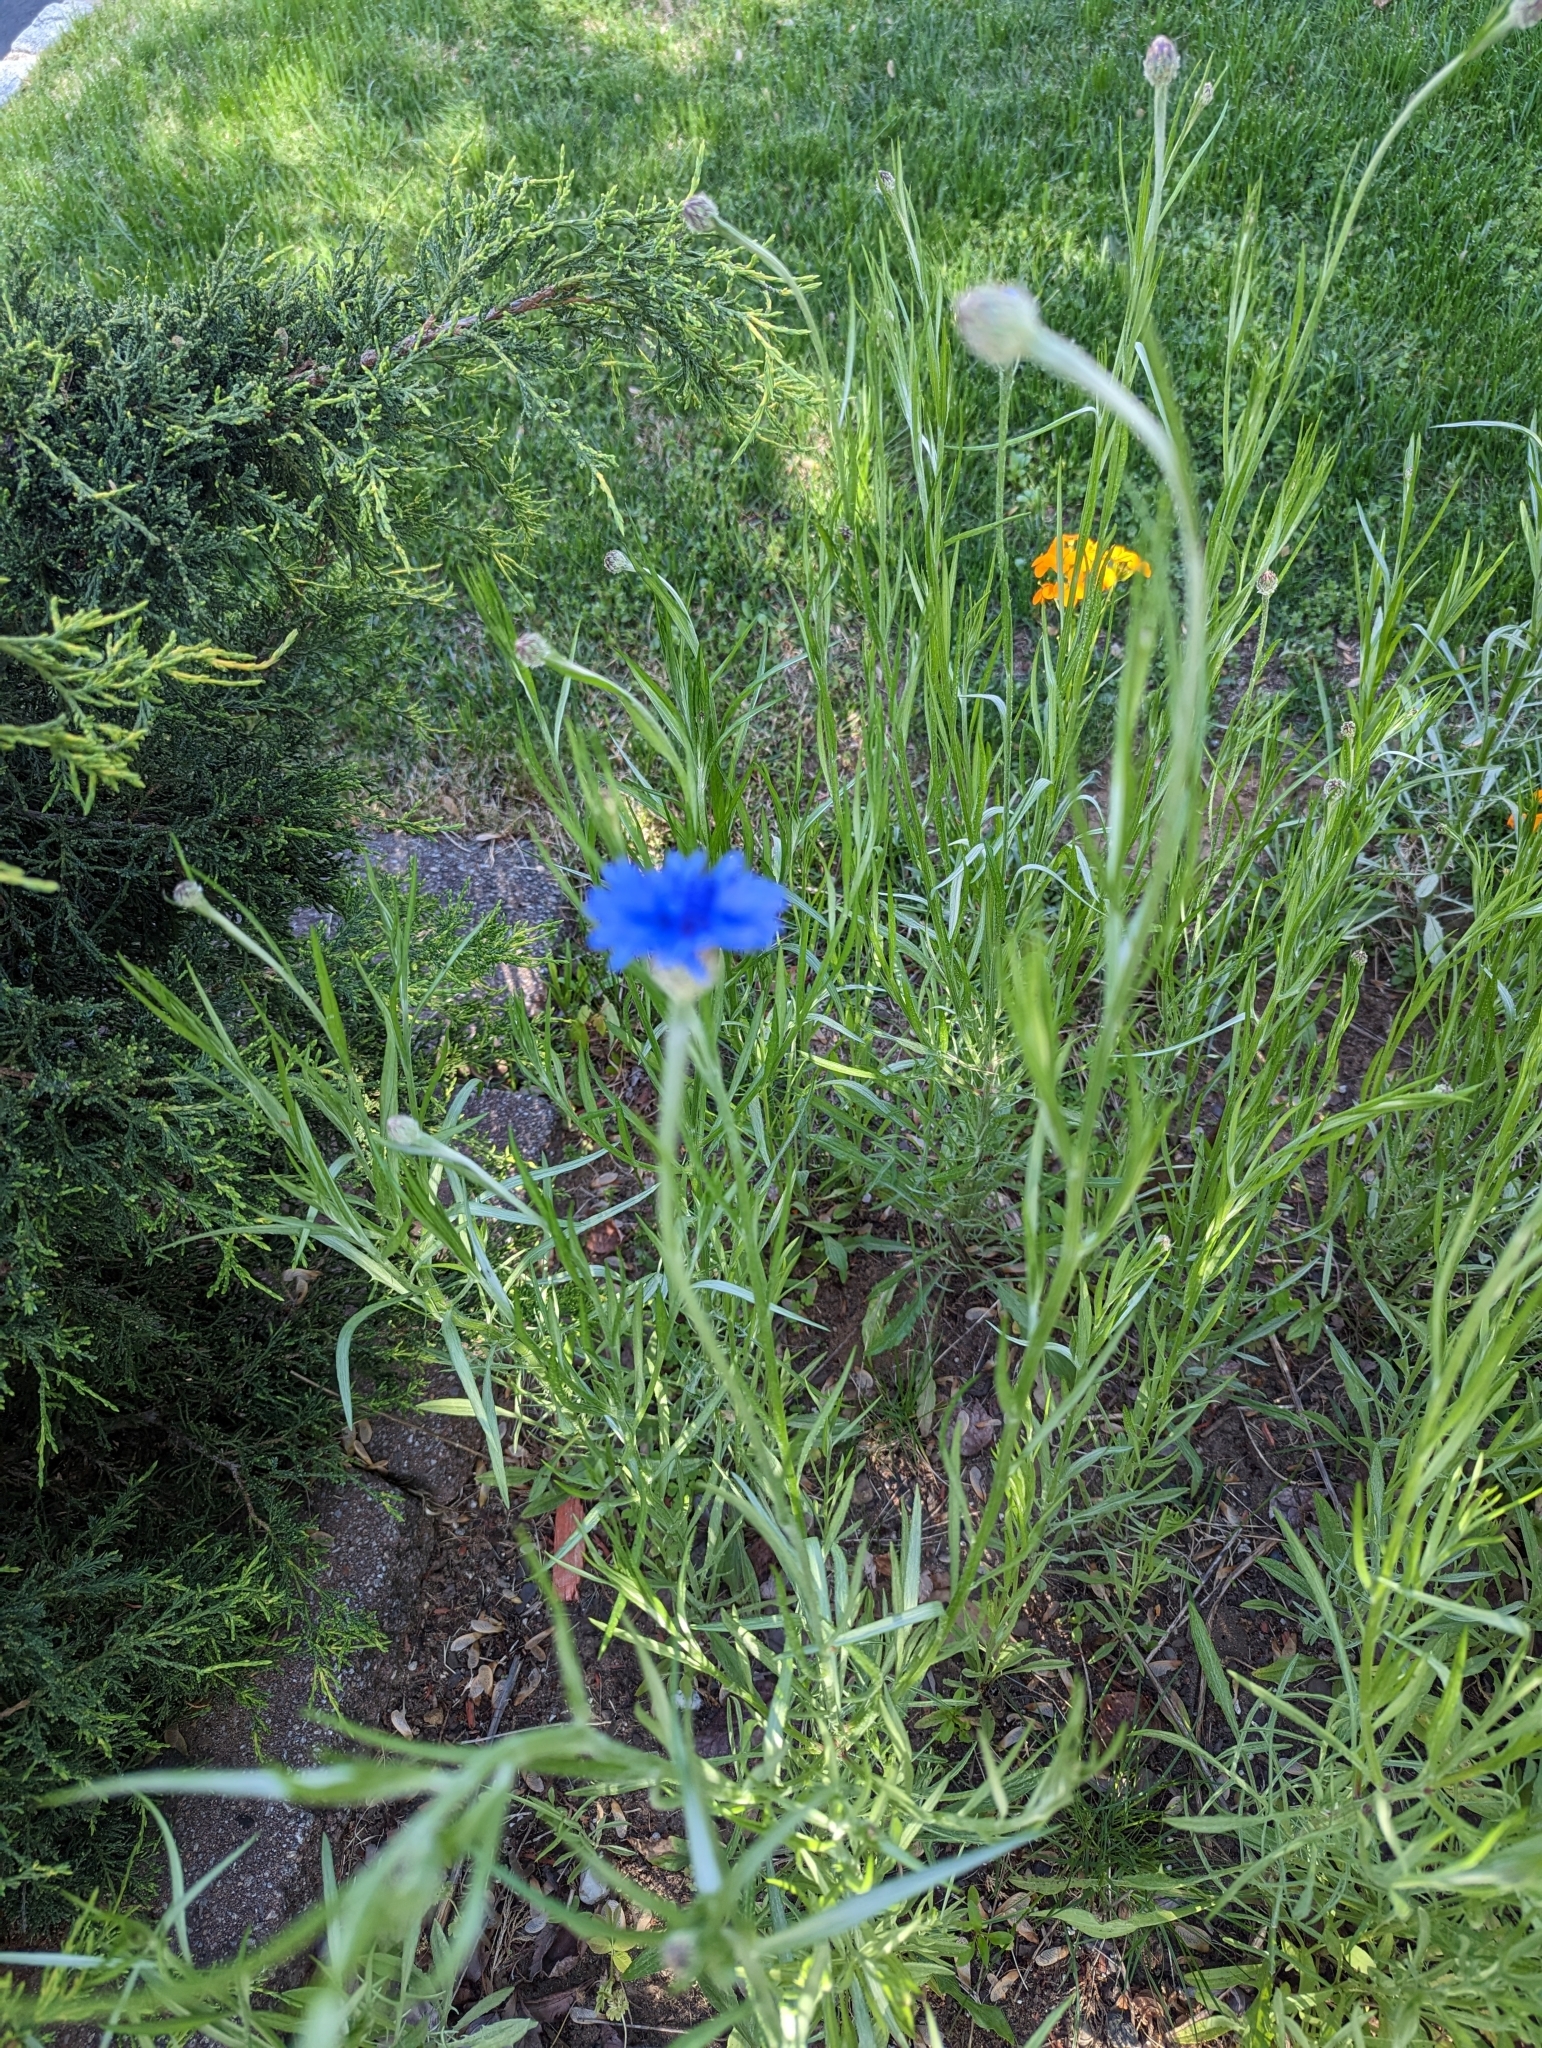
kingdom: Plantae
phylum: Tracheophyta
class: Magnoliopsida
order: Asterales
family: Asteraceae
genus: Centaurea
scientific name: Centaurea cyanus
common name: Cornflower
